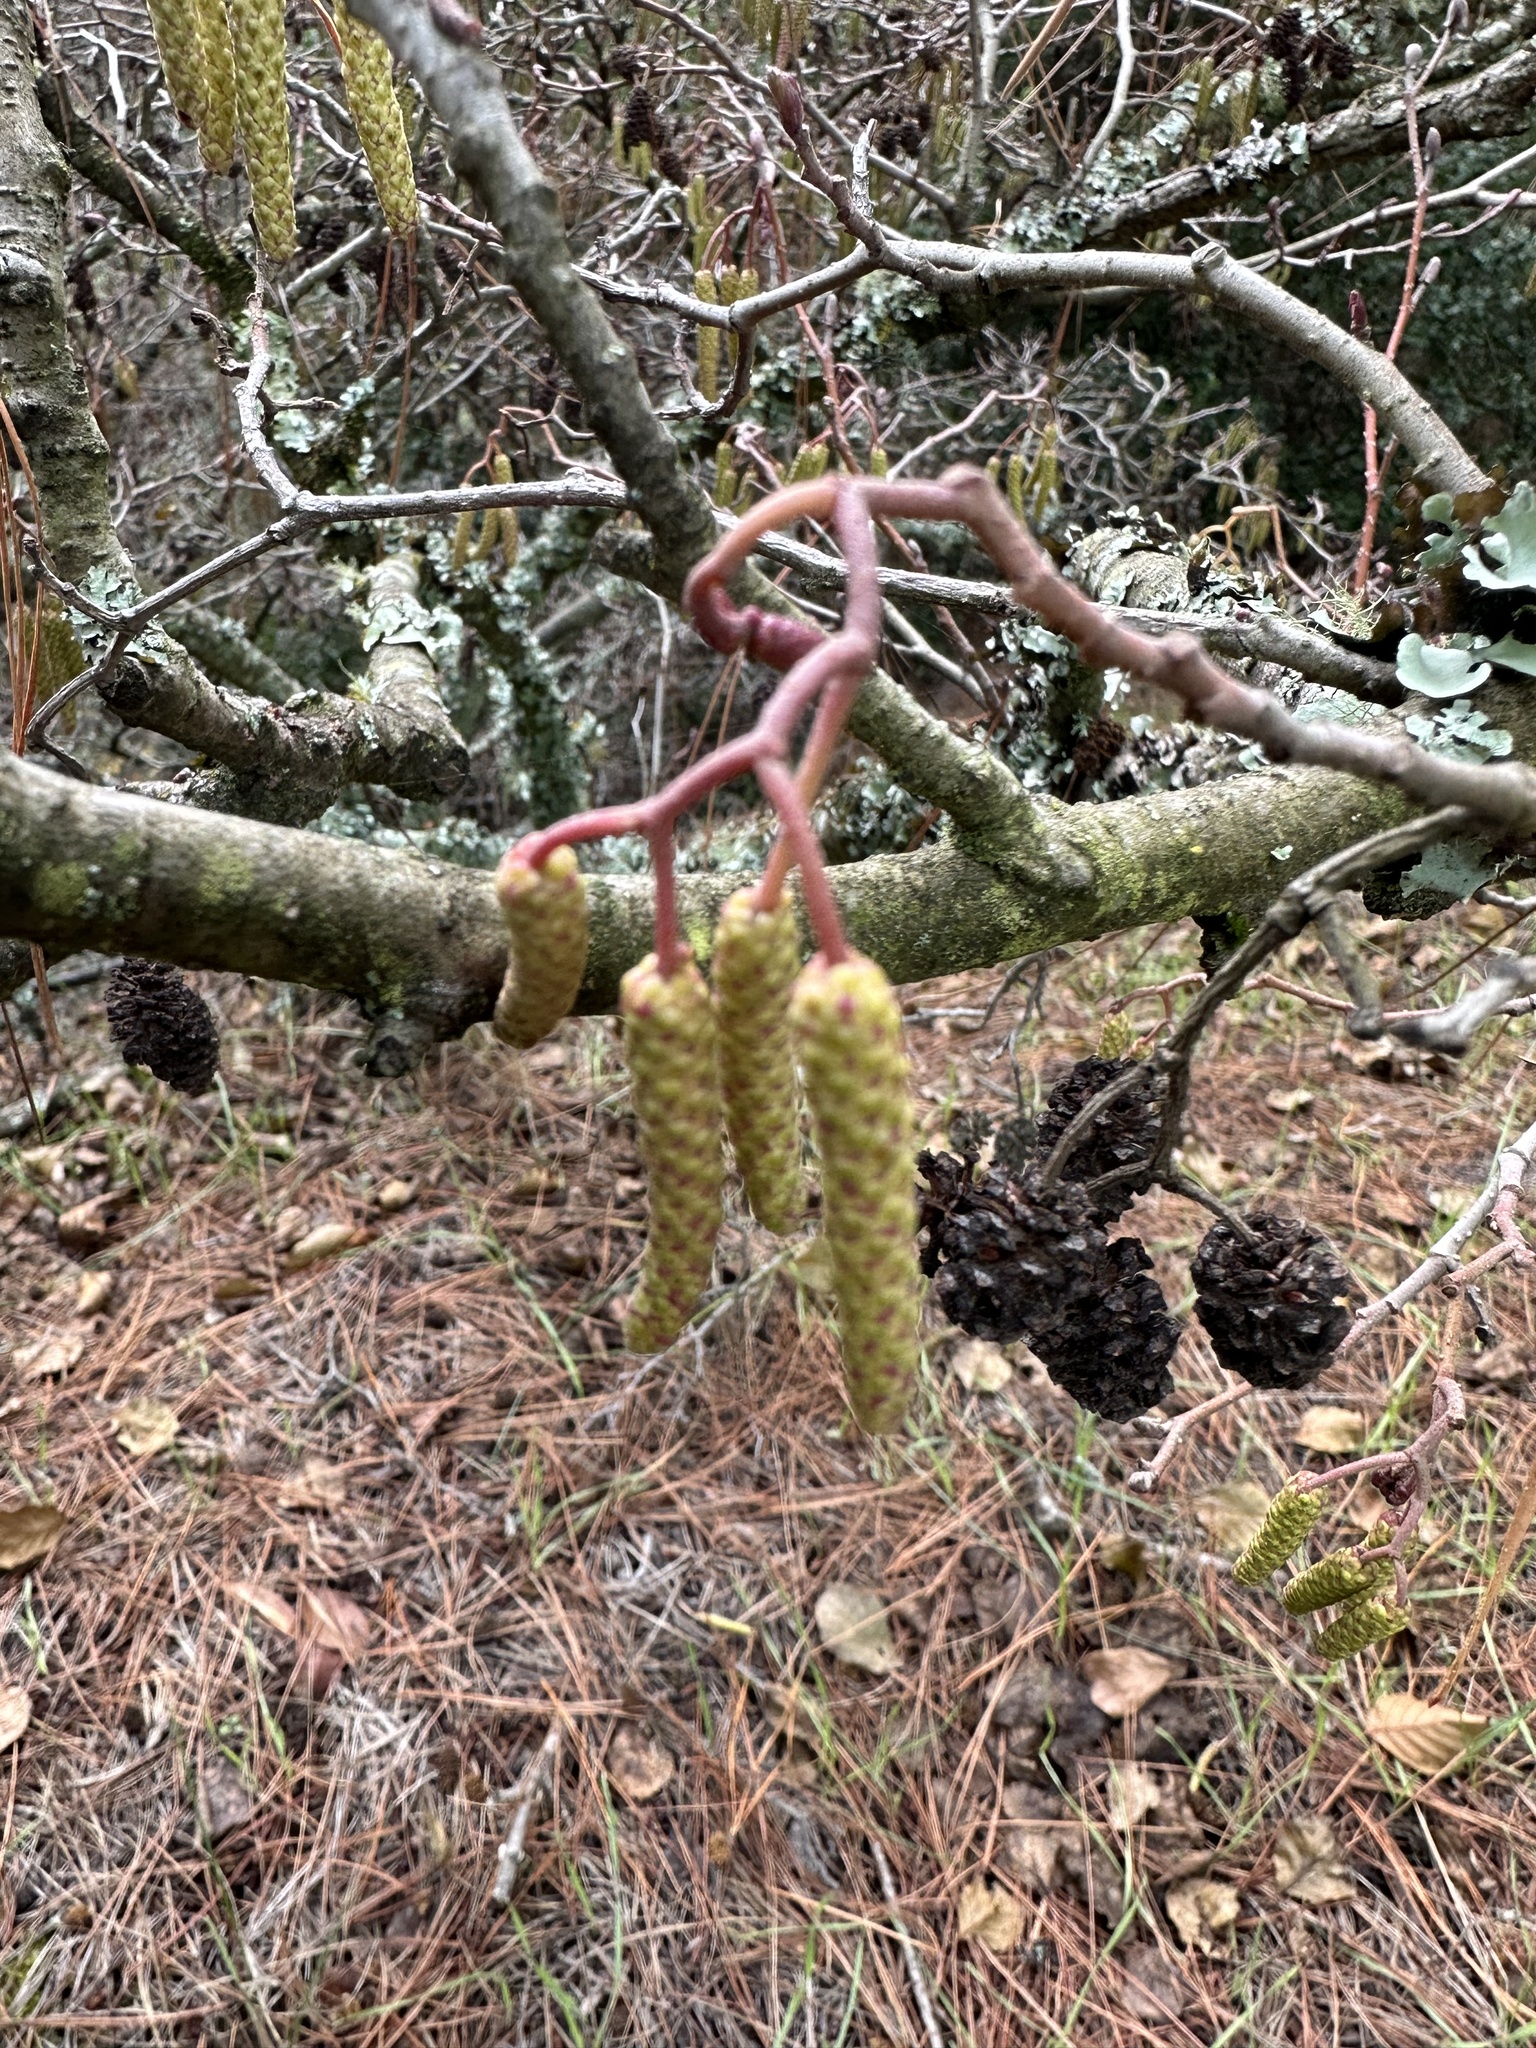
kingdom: Plantae
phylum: Tracheophyta
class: Magnoliopsida
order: Fagales
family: Betulaceae
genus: Alnus
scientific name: Alnus glutinosa
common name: Black alder
